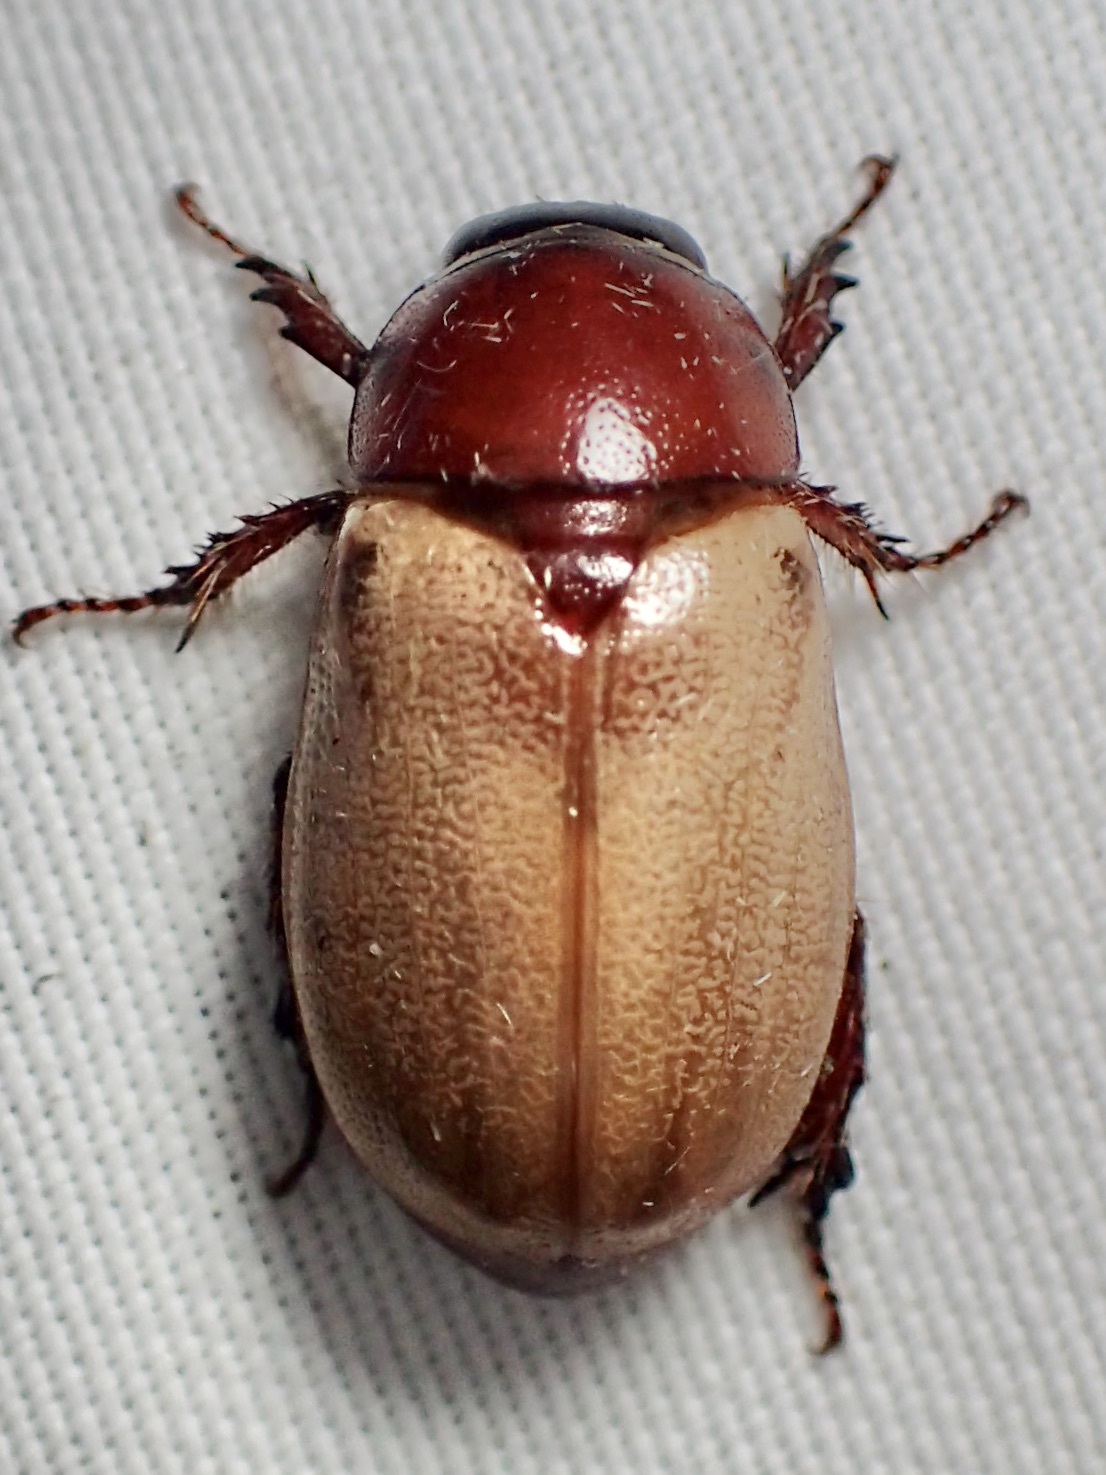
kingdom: Animalia
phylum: Arthropoda
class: Insecta
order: Coleoptera
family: Scarabaeidae
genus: Cyclocephala
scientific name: Cyclocephala melanocephala
